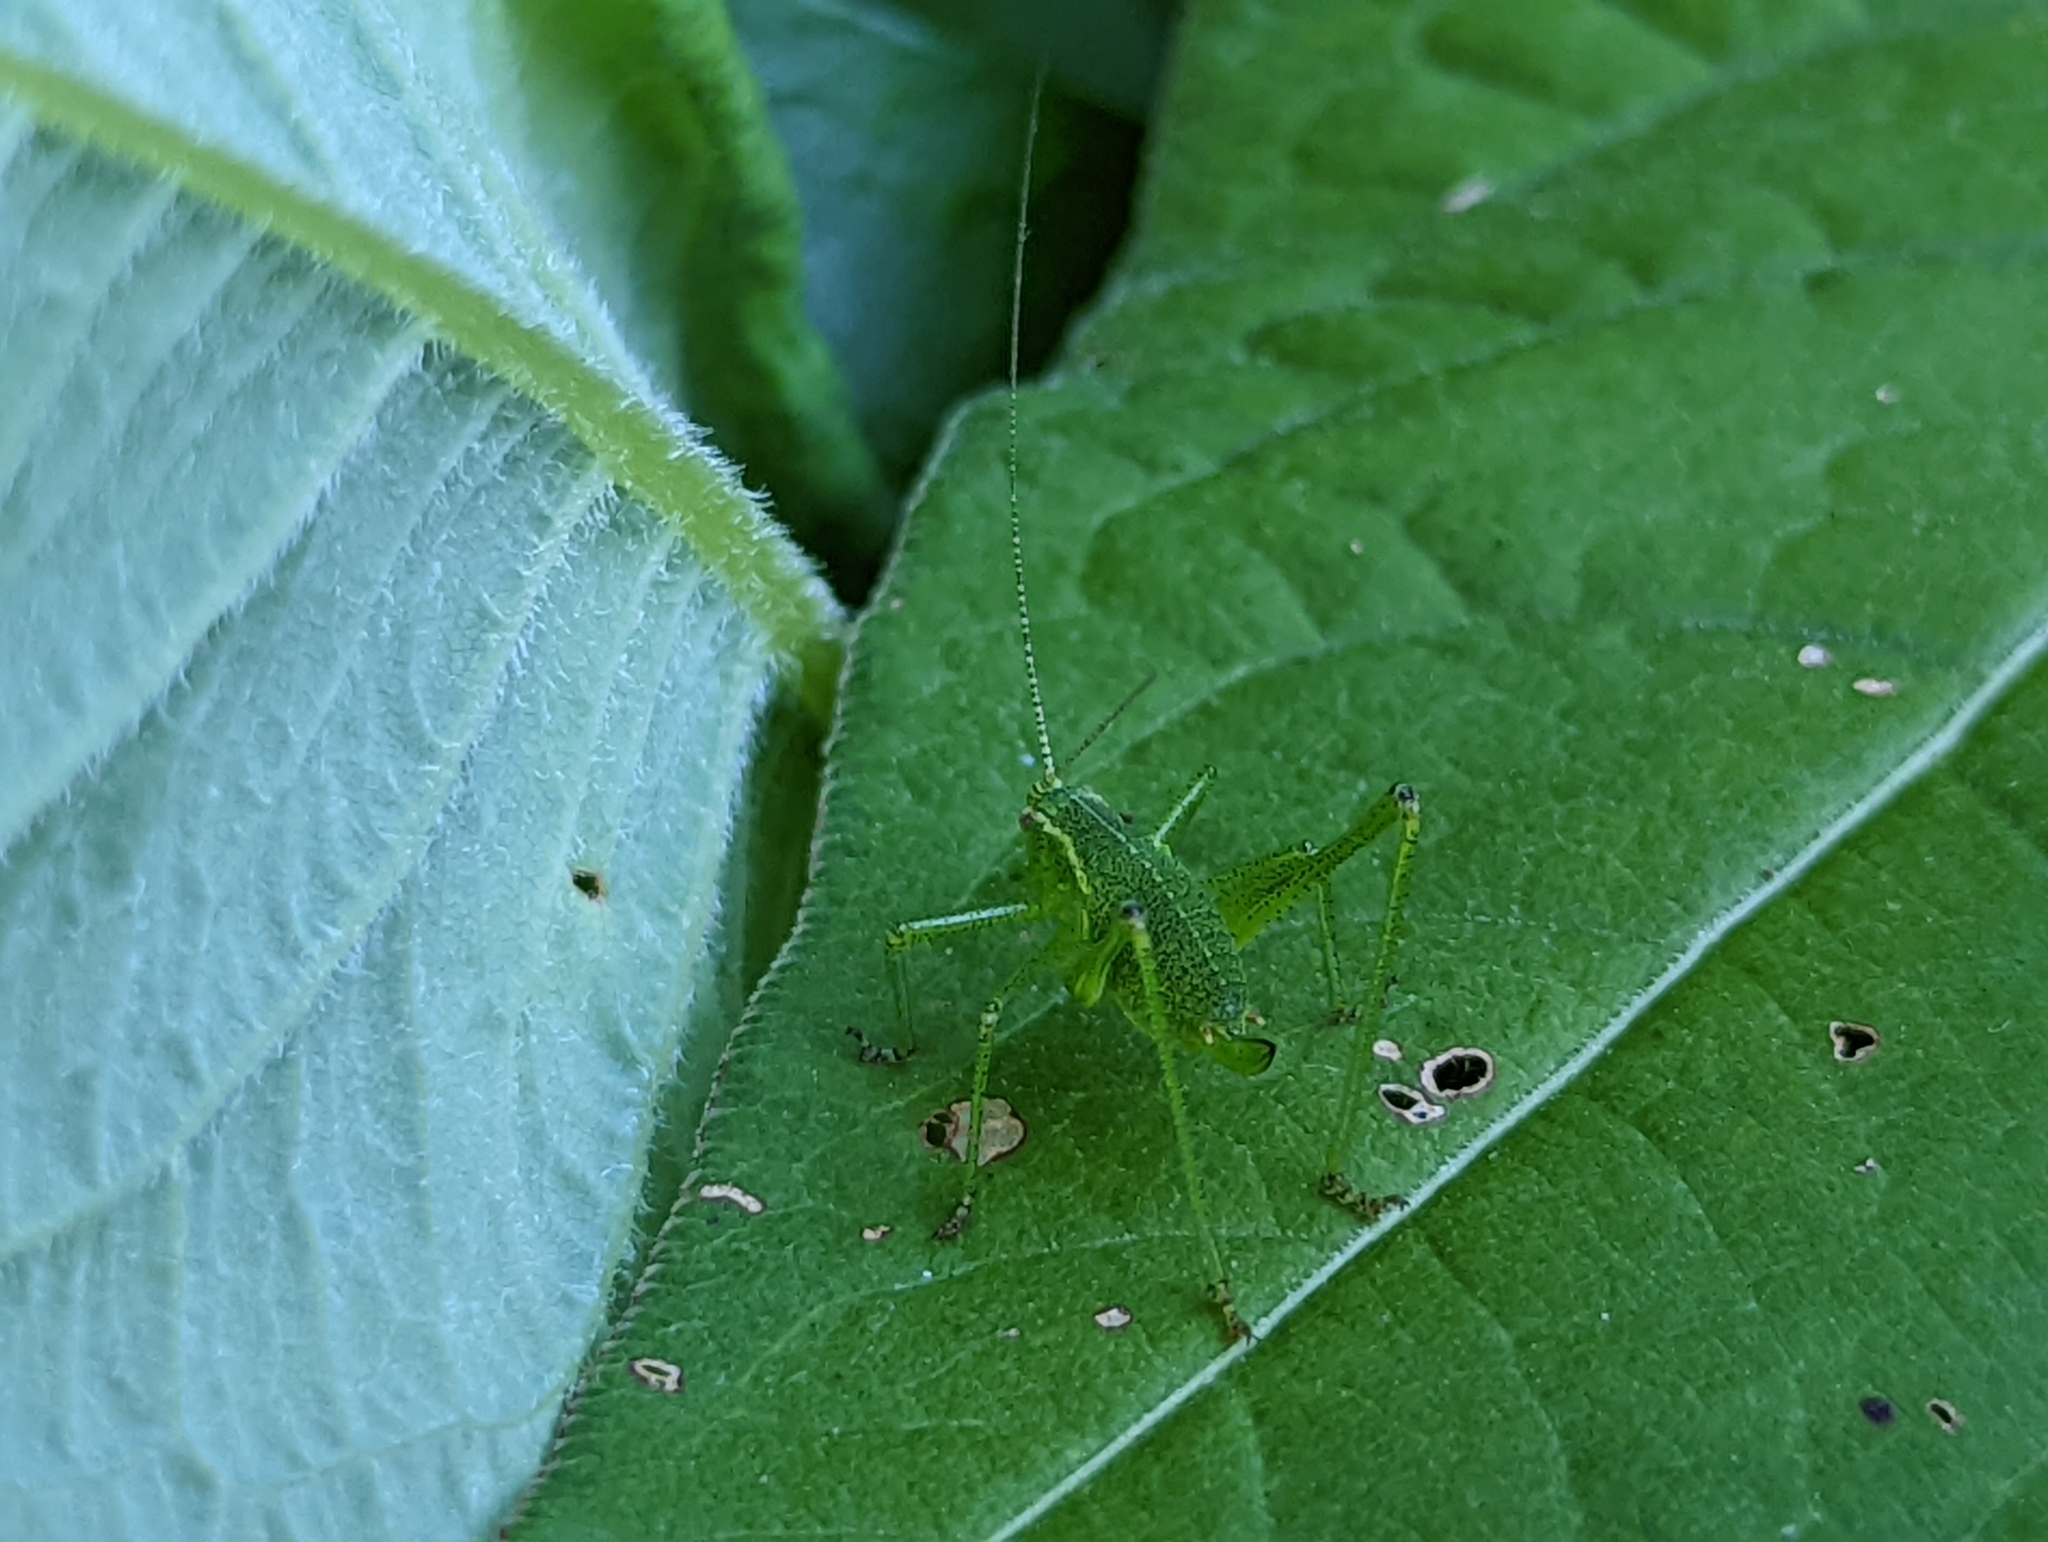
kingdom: Animalia
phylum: Arthropoda
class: Insecta
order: Orthoptera
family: Tettigoniidae
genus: Leptophyes
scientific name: Leptophyes punctatissima
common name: Speckled bush-cricket
